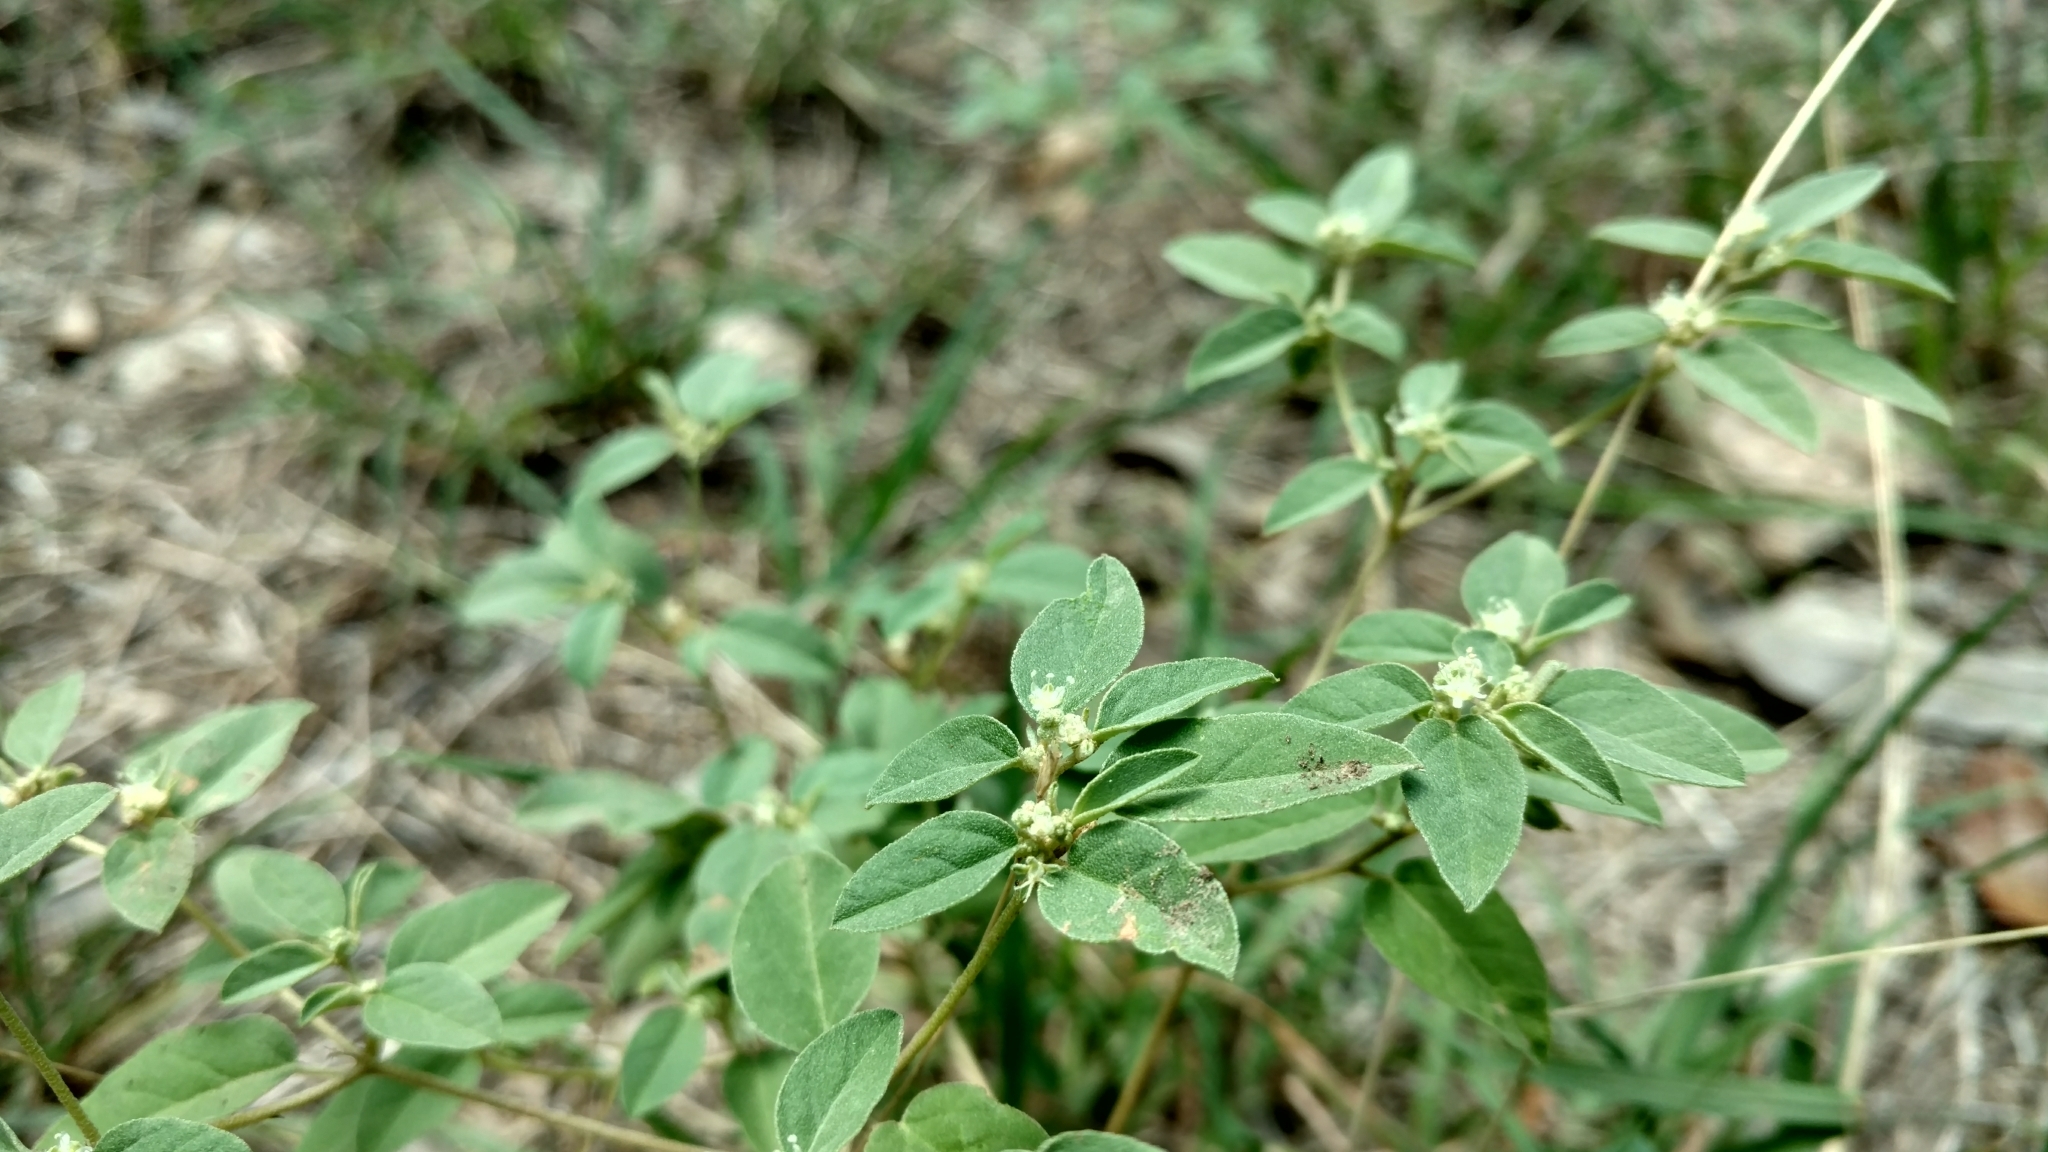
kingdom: Plantae
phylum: Tracheophyta
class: Magnoliopsida
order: Malpighiales
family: Euphorbiaceae
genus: Croton
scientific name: Croton monanthogynus
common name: One-seed croton
